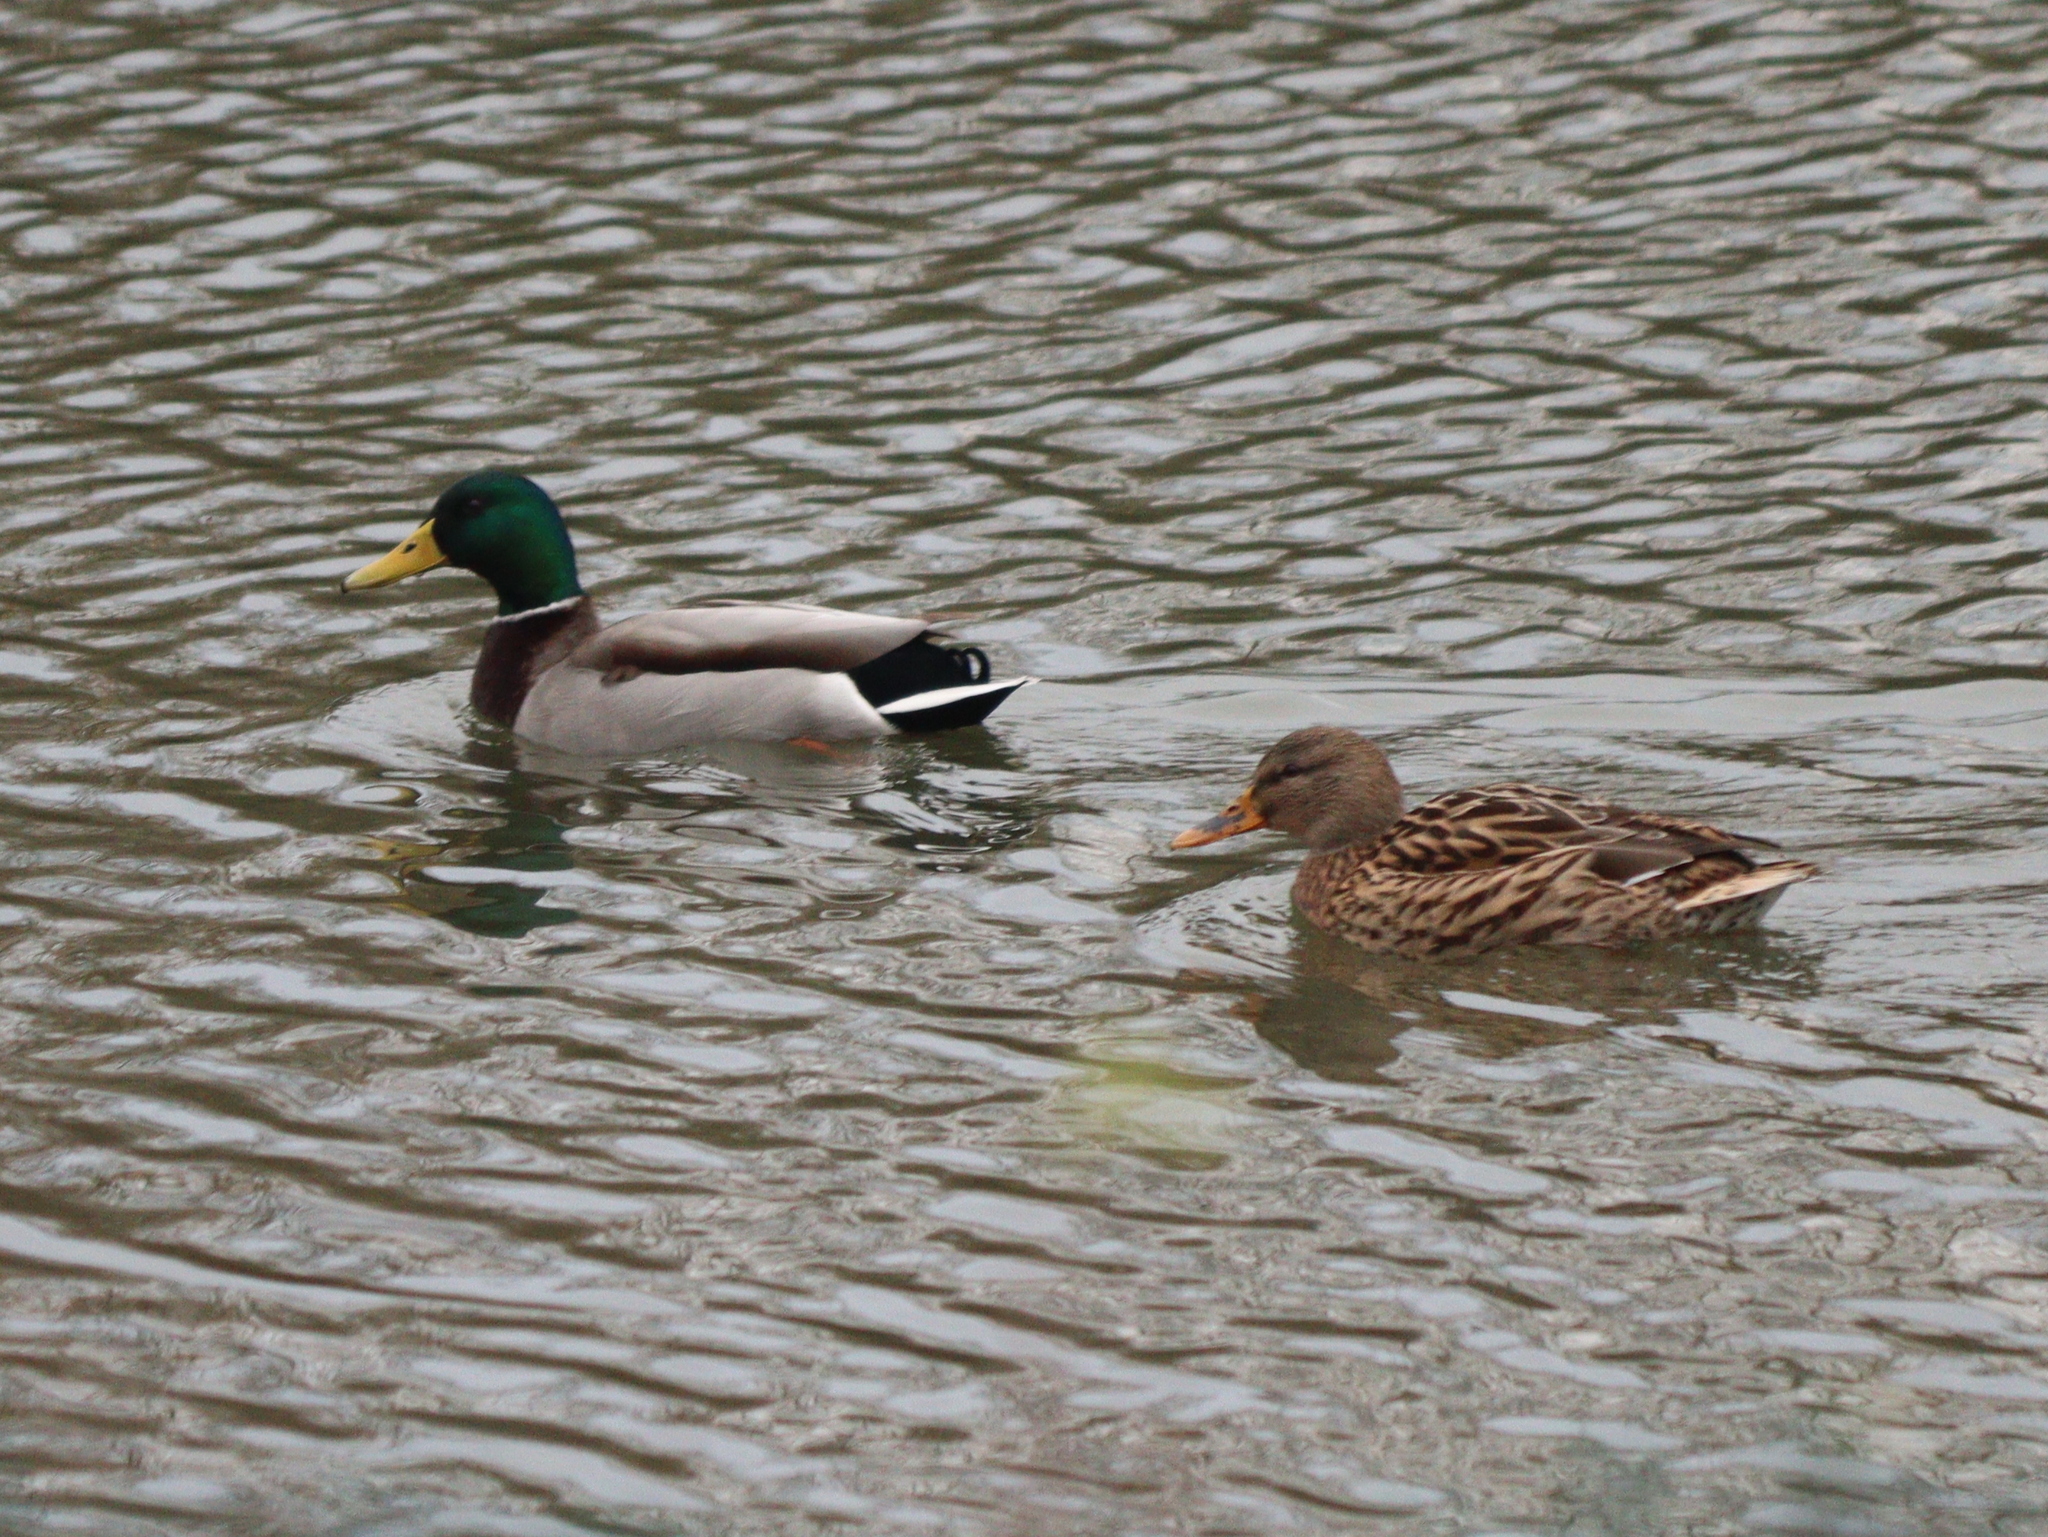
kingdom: Animalia
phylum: Chordata
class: Aves
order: Anseriformes
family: Anatidae
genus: Anas
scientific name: Anas platyrhynchos
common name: Mallard
